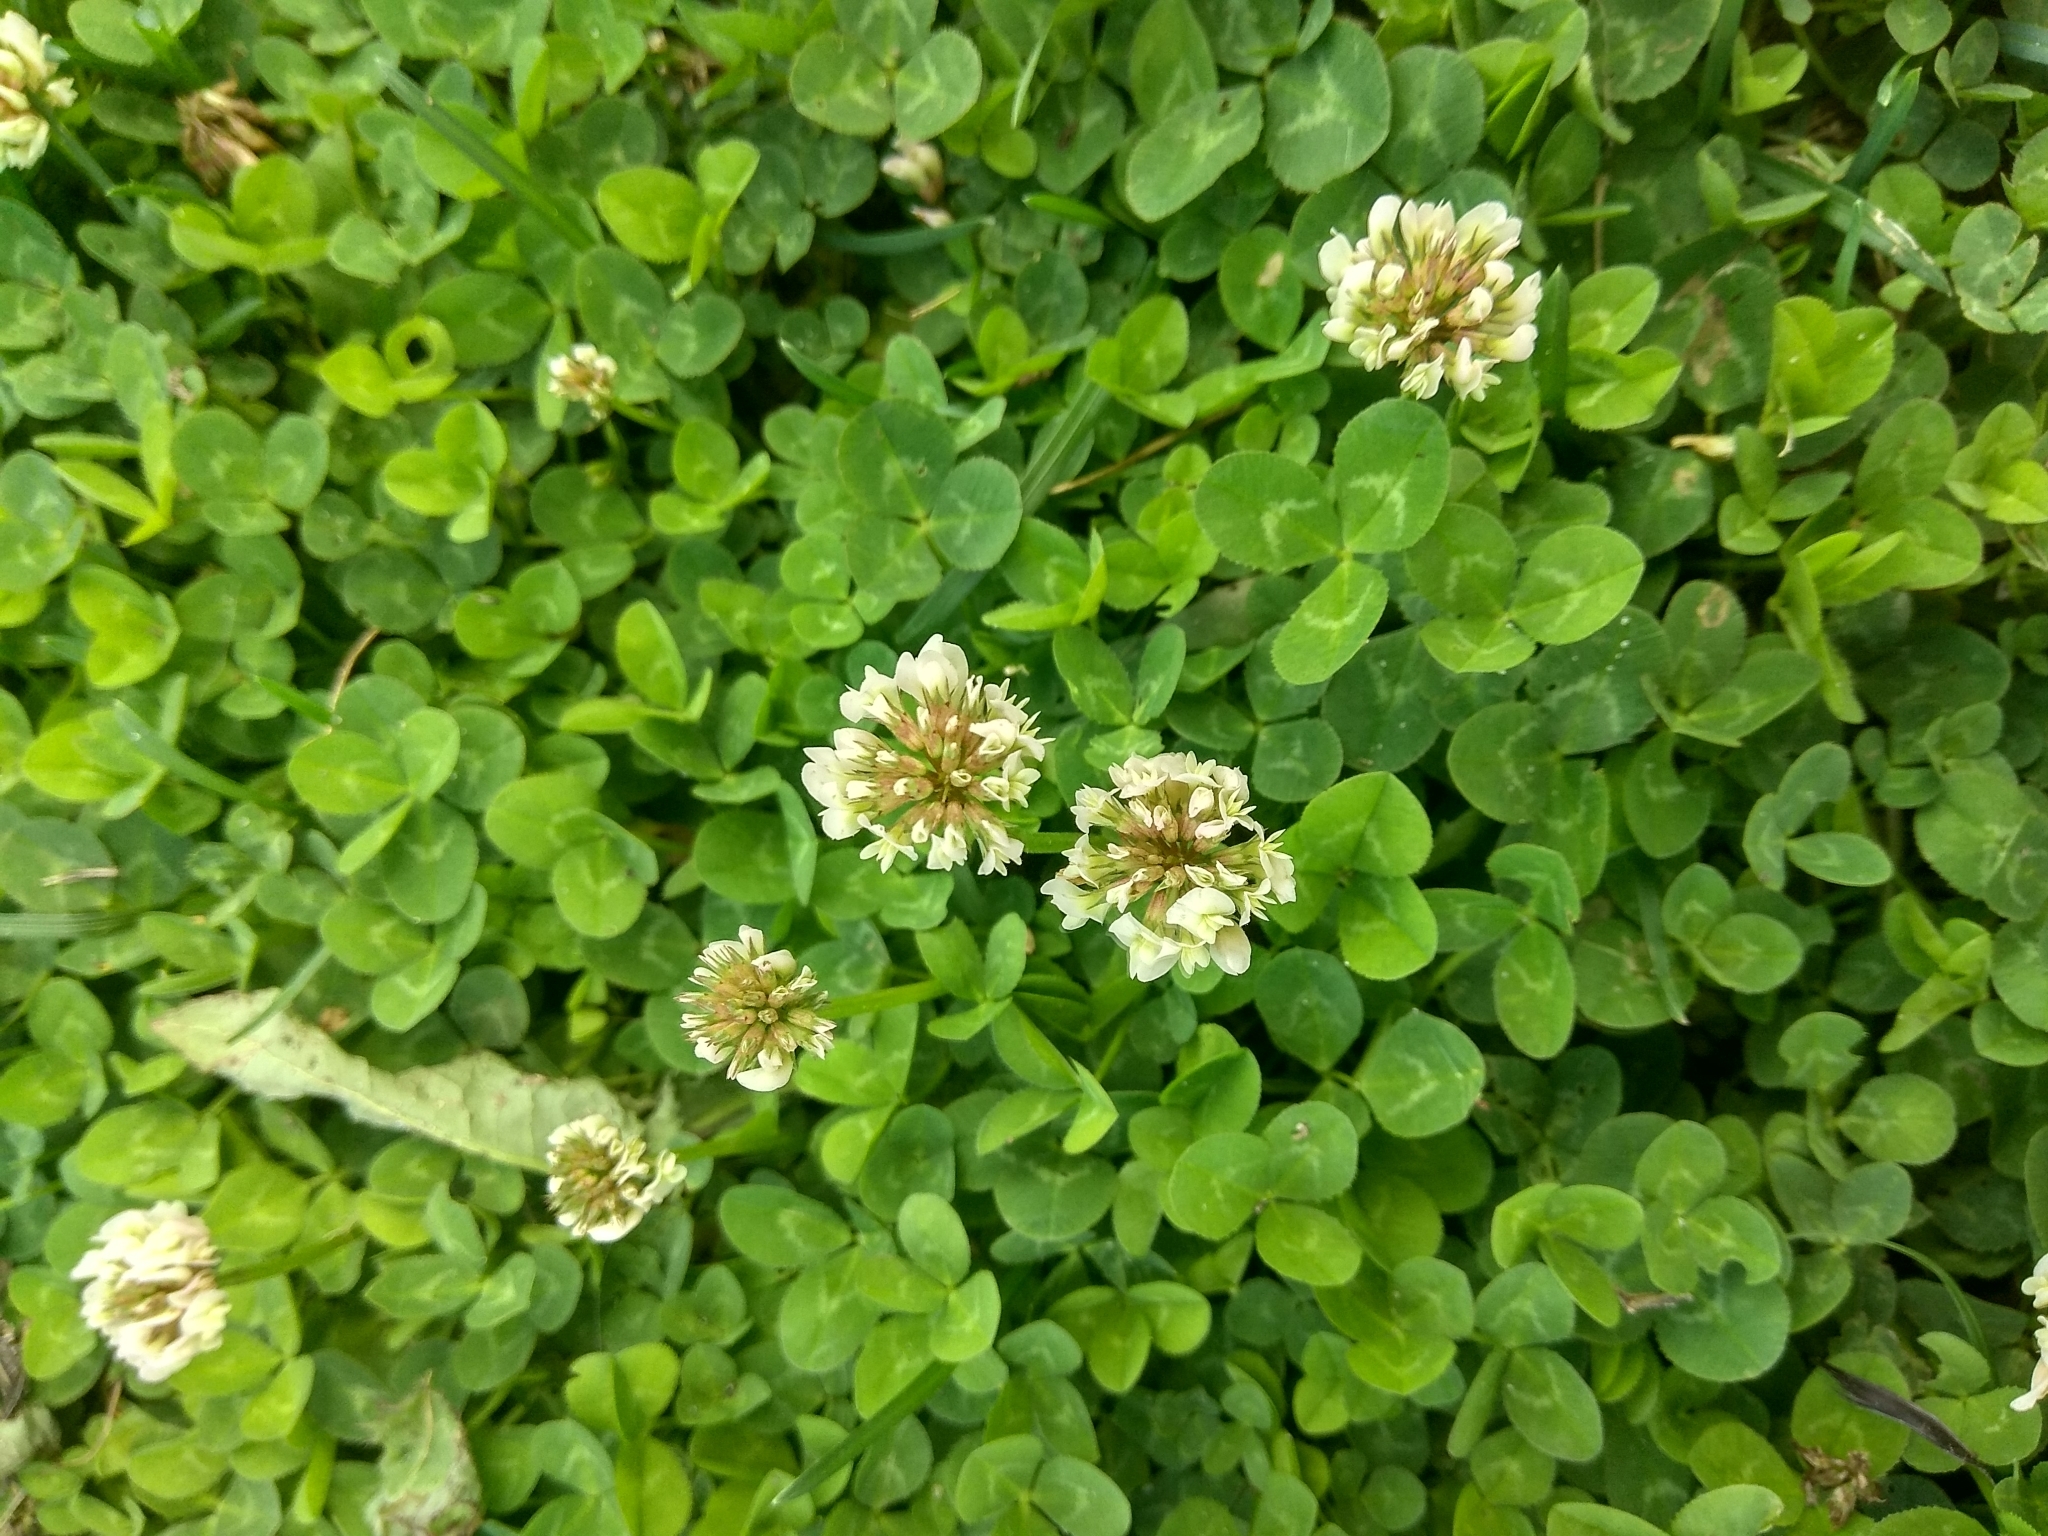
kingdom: Plantae
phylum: Tracheophyta
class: Magnoliopsida
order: Fabales
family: Fabaceae
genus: Trifolium
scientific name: Trifolium repens
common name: White clover
